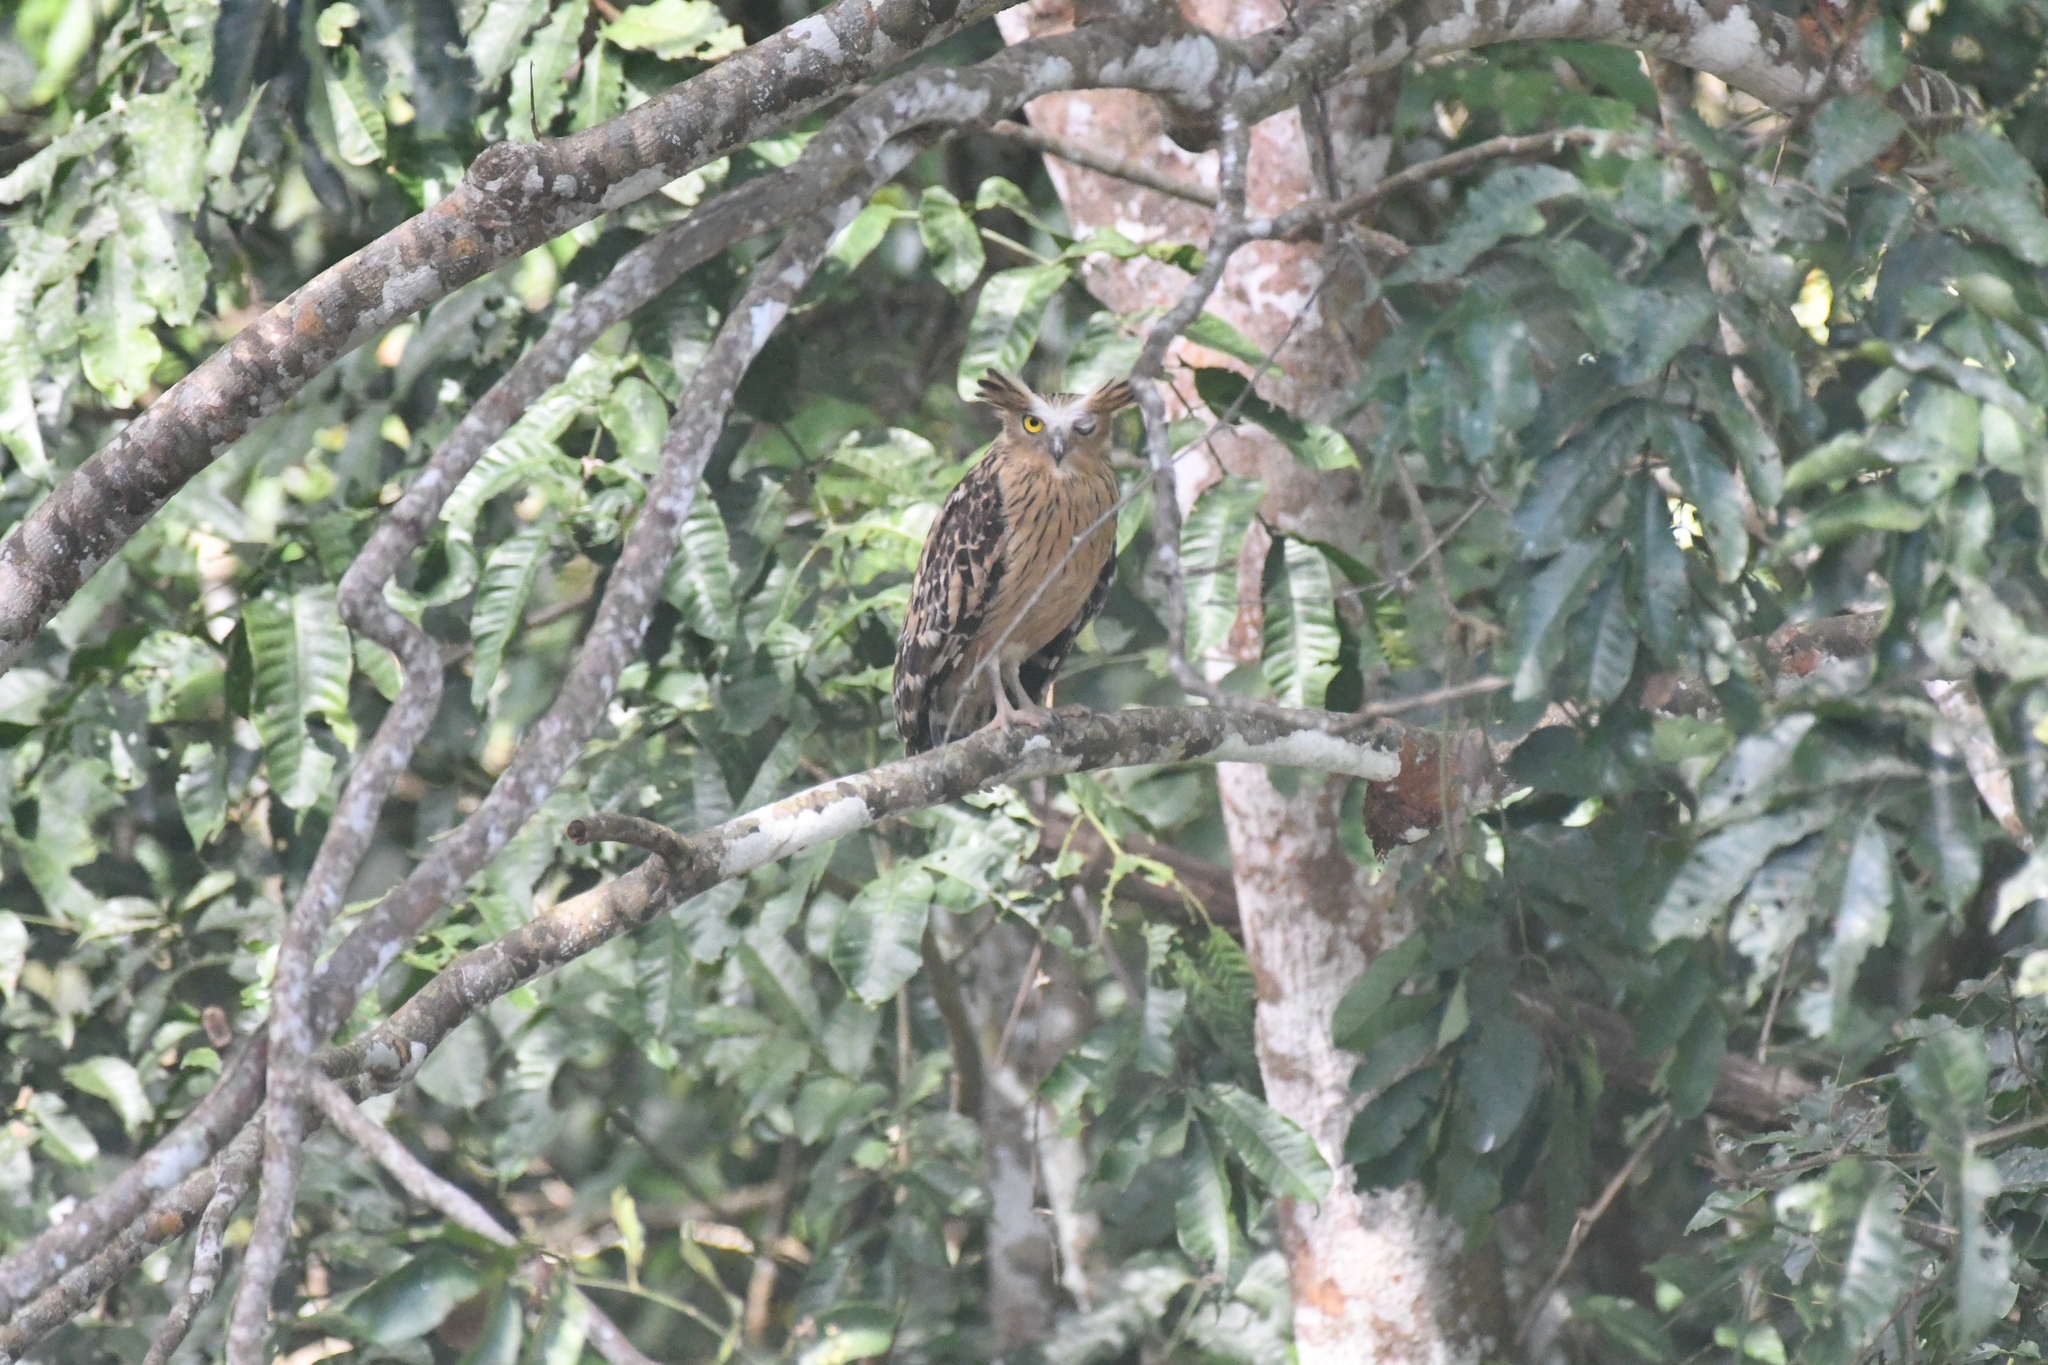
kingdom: Animalia
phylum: Chordata
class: Aves
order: Strigiformes
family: Strigidae
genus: Ketupa
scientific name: Ketupa ketupu
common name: Buffy fish-owl
